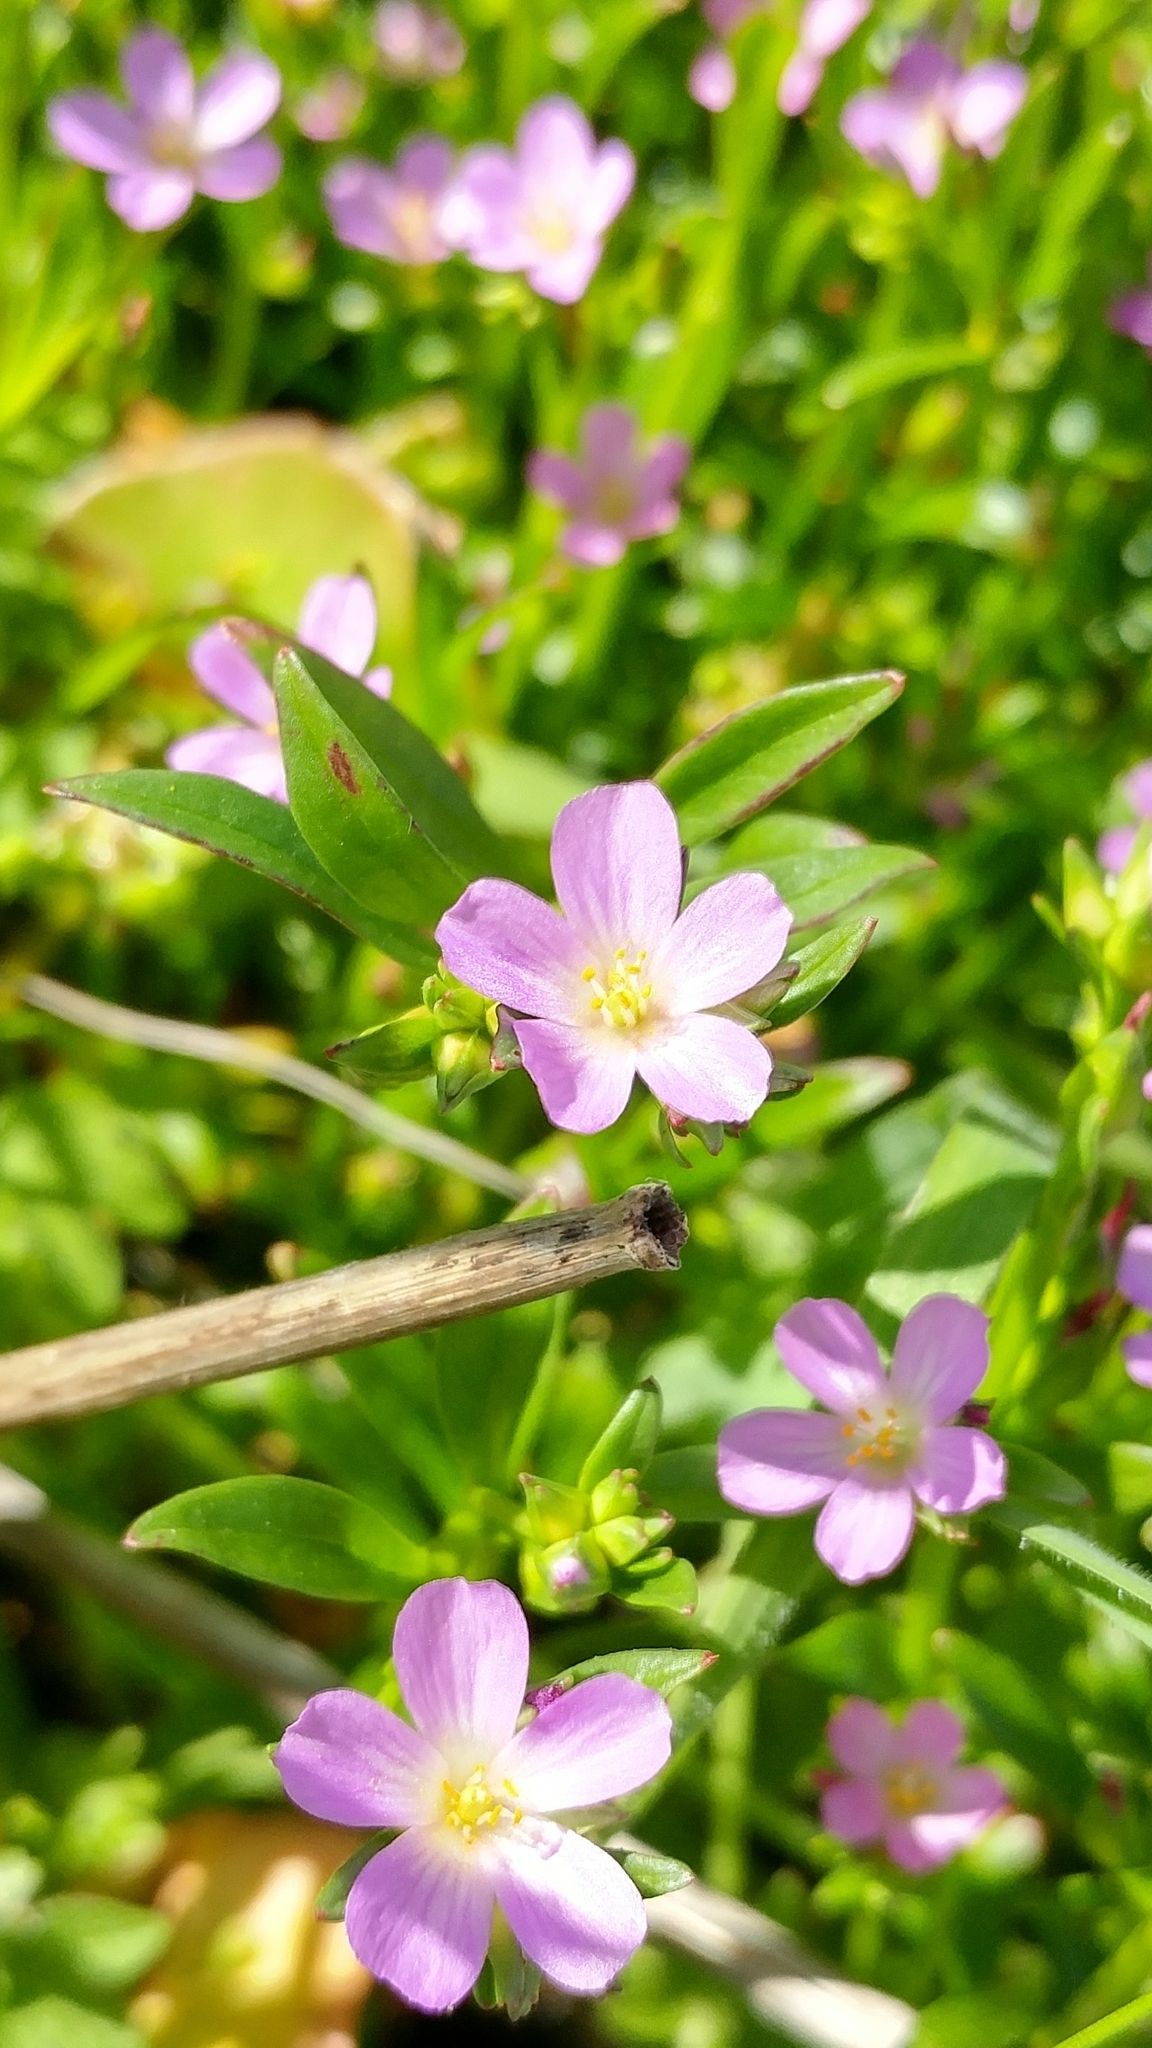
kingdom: Plantae
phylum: Tracheophyta
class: Magnoliopsida
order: Caryophyllales
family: Montiaceae
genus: Calandrinia
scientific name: Calandrinia menziesii
